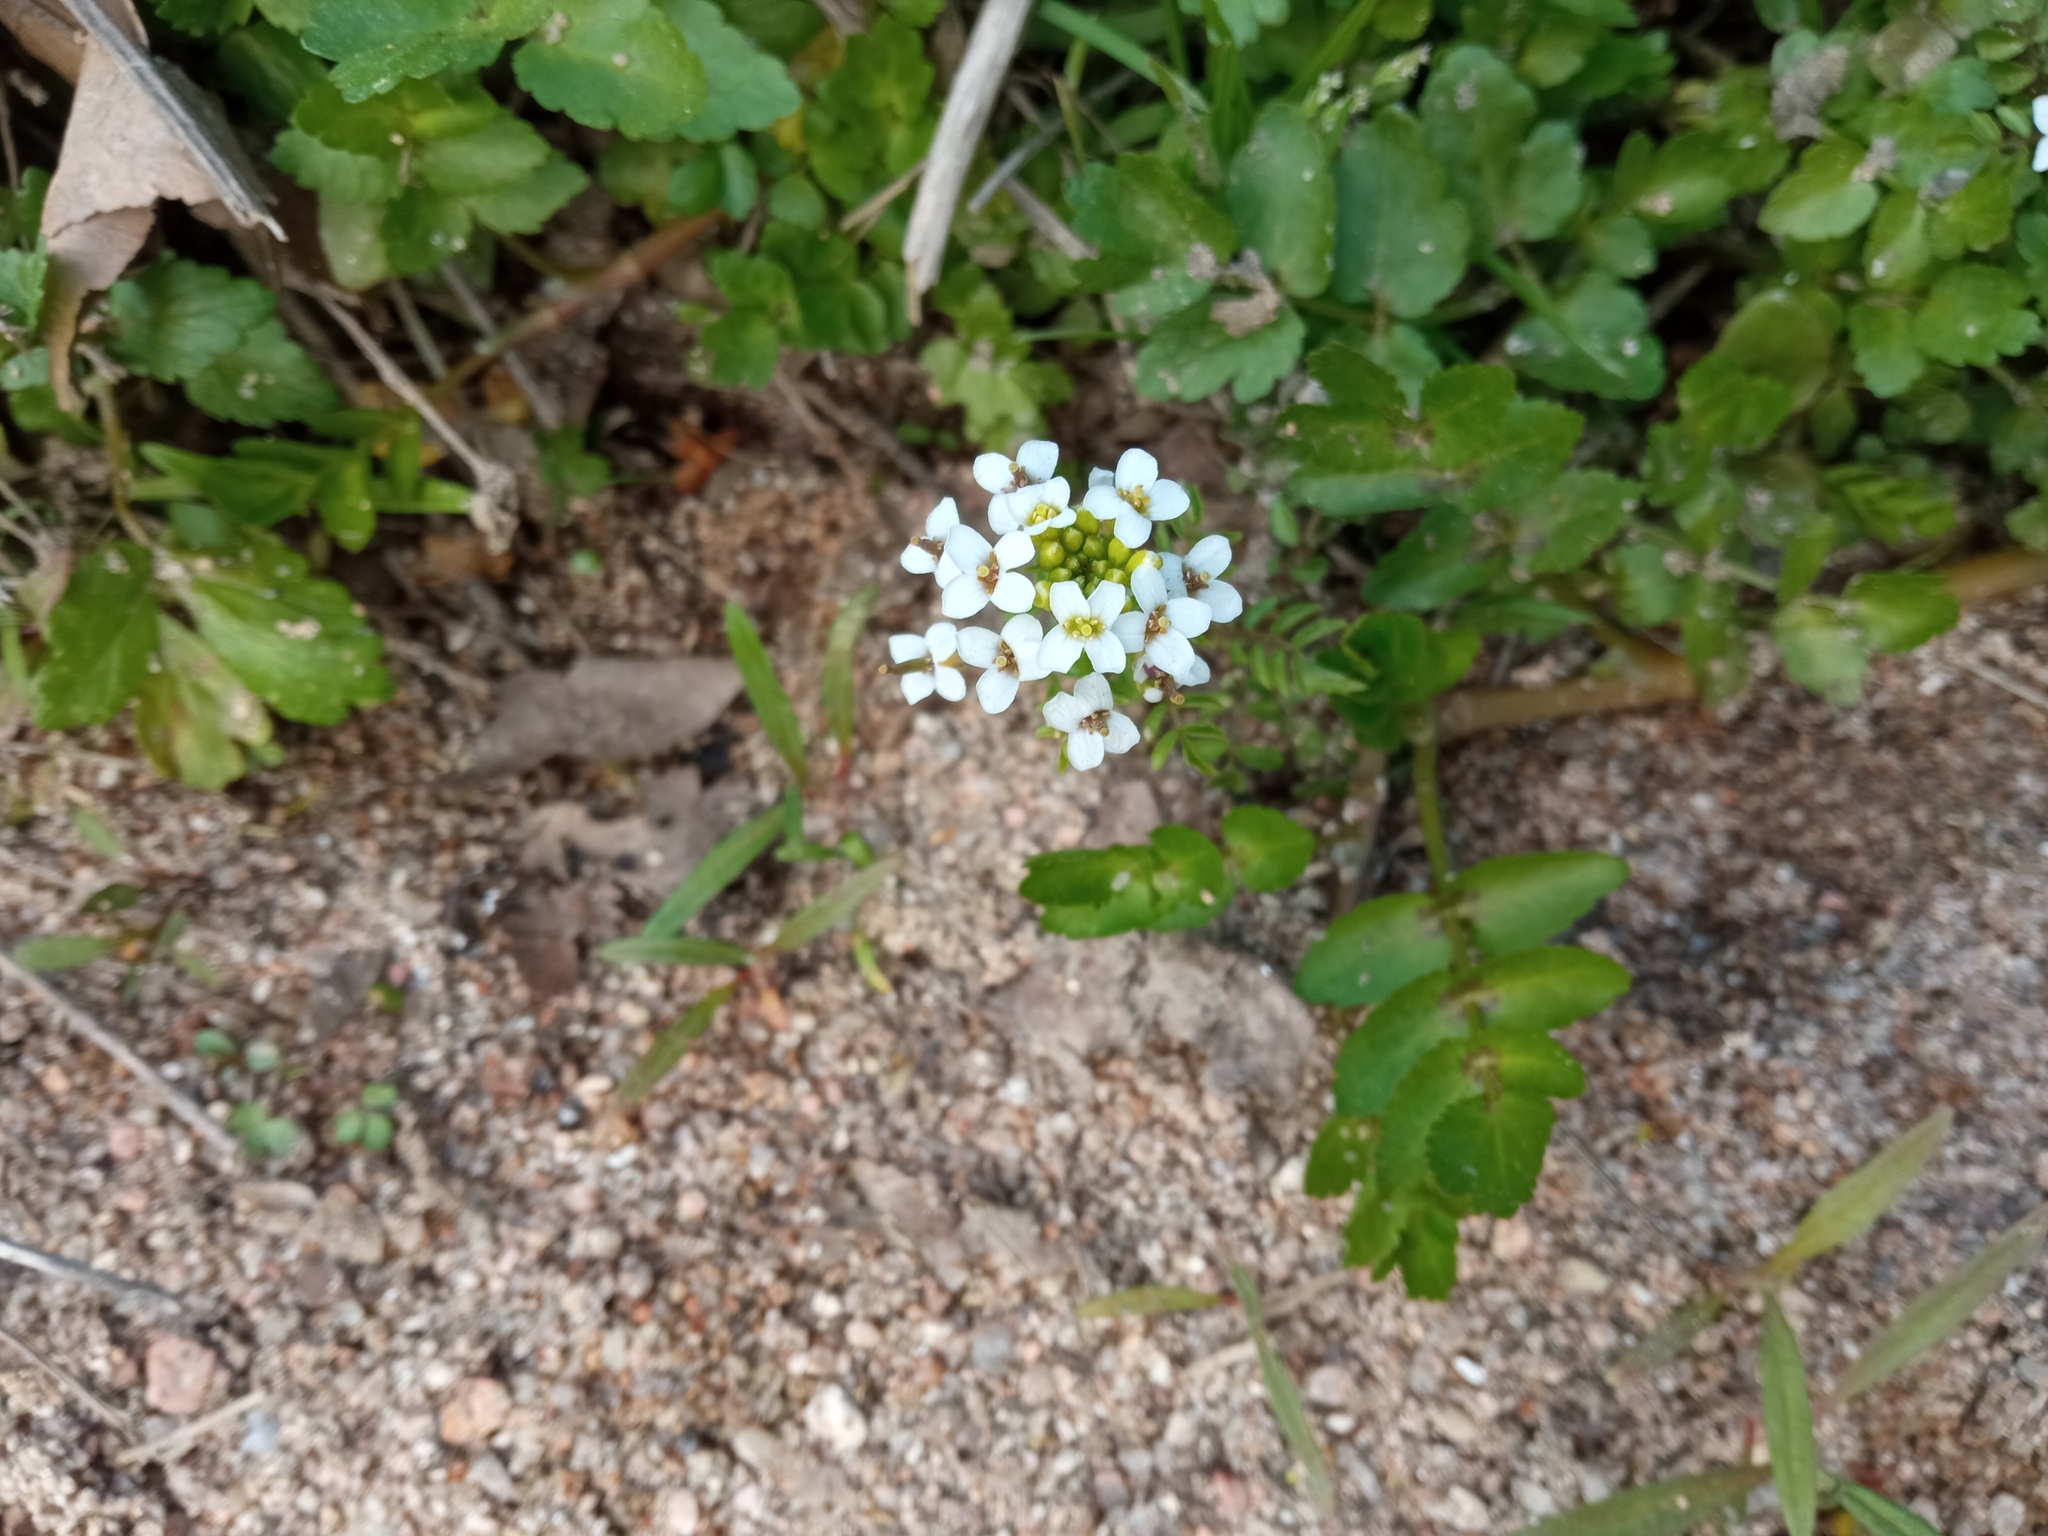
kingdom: Plantae
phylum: Tracheophyta
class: Magnoliopsida
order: Brassicales
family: Brassicaceae
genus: Nasturtium
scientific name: Nasturtium officinale
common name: Watercress
